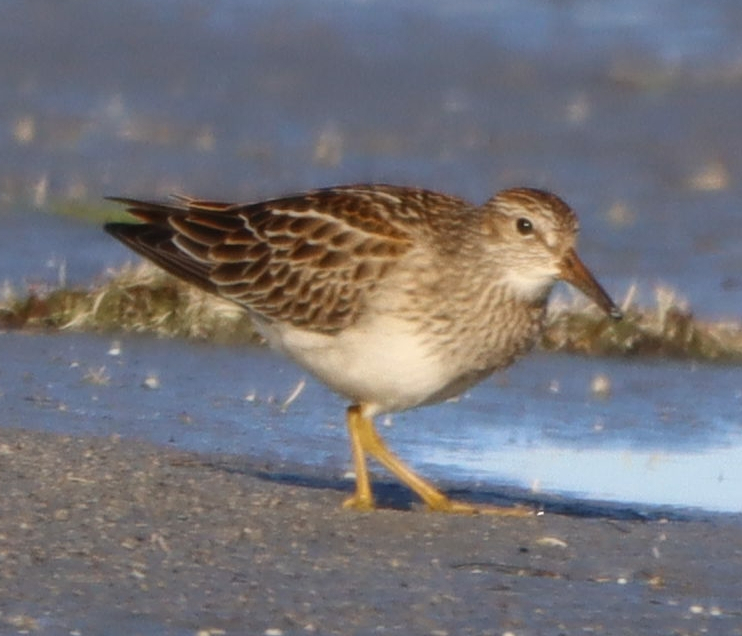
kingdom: Animalia
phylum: Chordata
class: Aves
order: Charadriiformes
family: Scolopacidae
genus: Calidris
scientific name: Calidris melanotos
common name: Pectoral sandpiper
